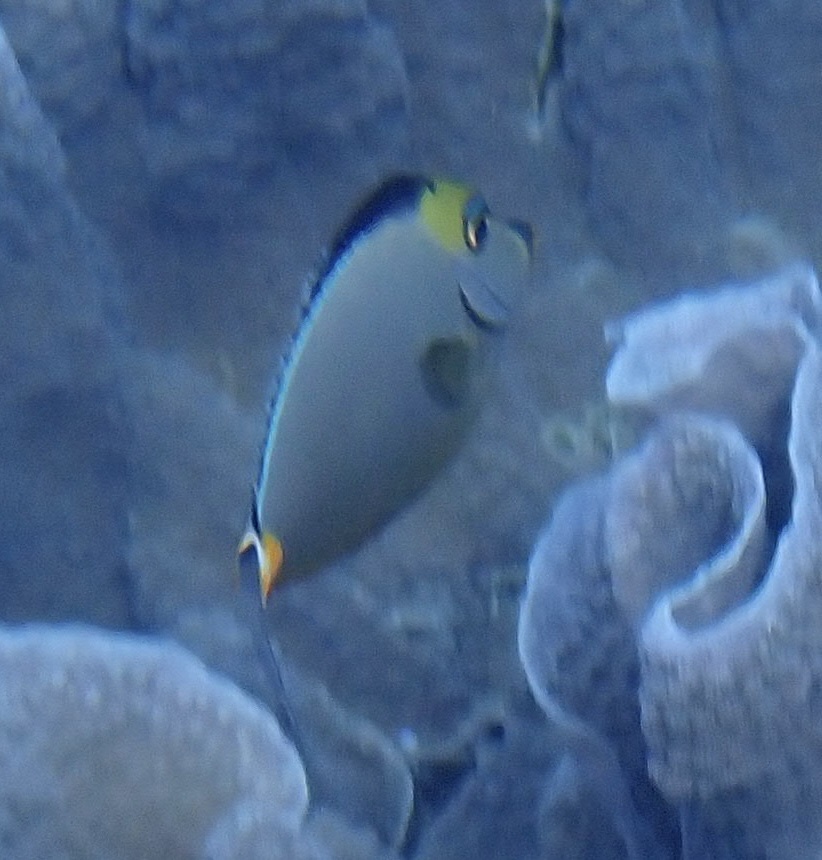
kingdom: Animalia
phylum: Chordata
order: Perciformes
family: Acanthuridae
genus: Naso
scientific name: Naso lituratus
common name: Orangespine unicornfish
